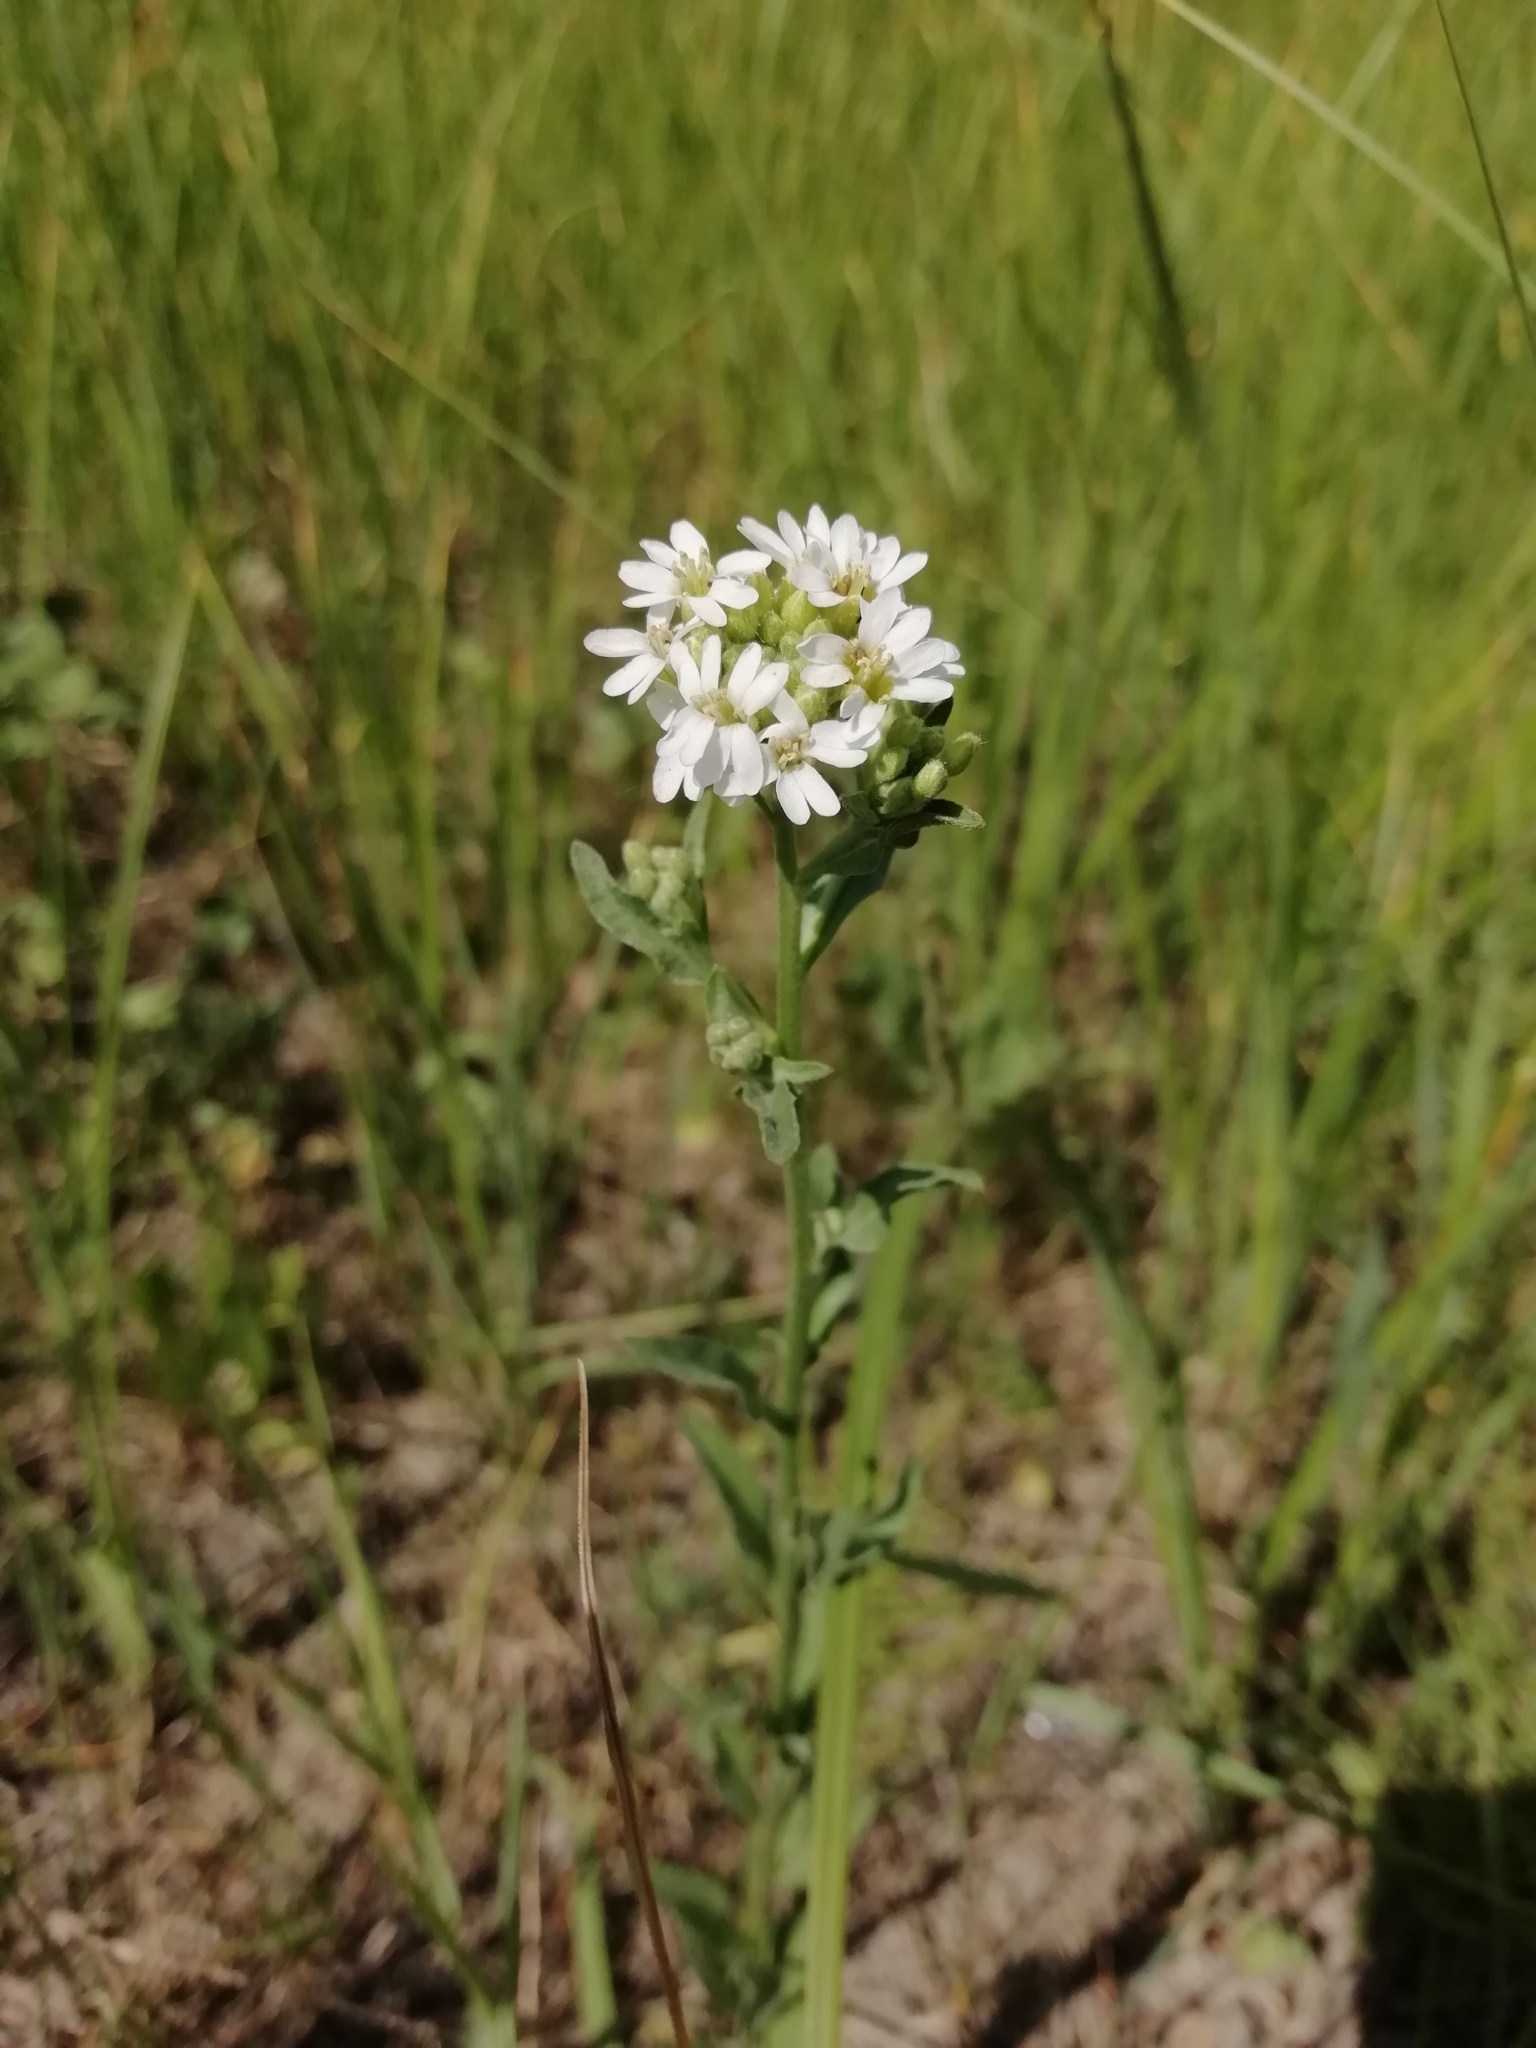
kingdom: Plantae
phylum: Tracheophyta
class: Magnoliopsida
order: Brassicales
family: Brassicaceae
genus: Berteroa
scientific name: Berteroa incana
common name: Hoary alison
